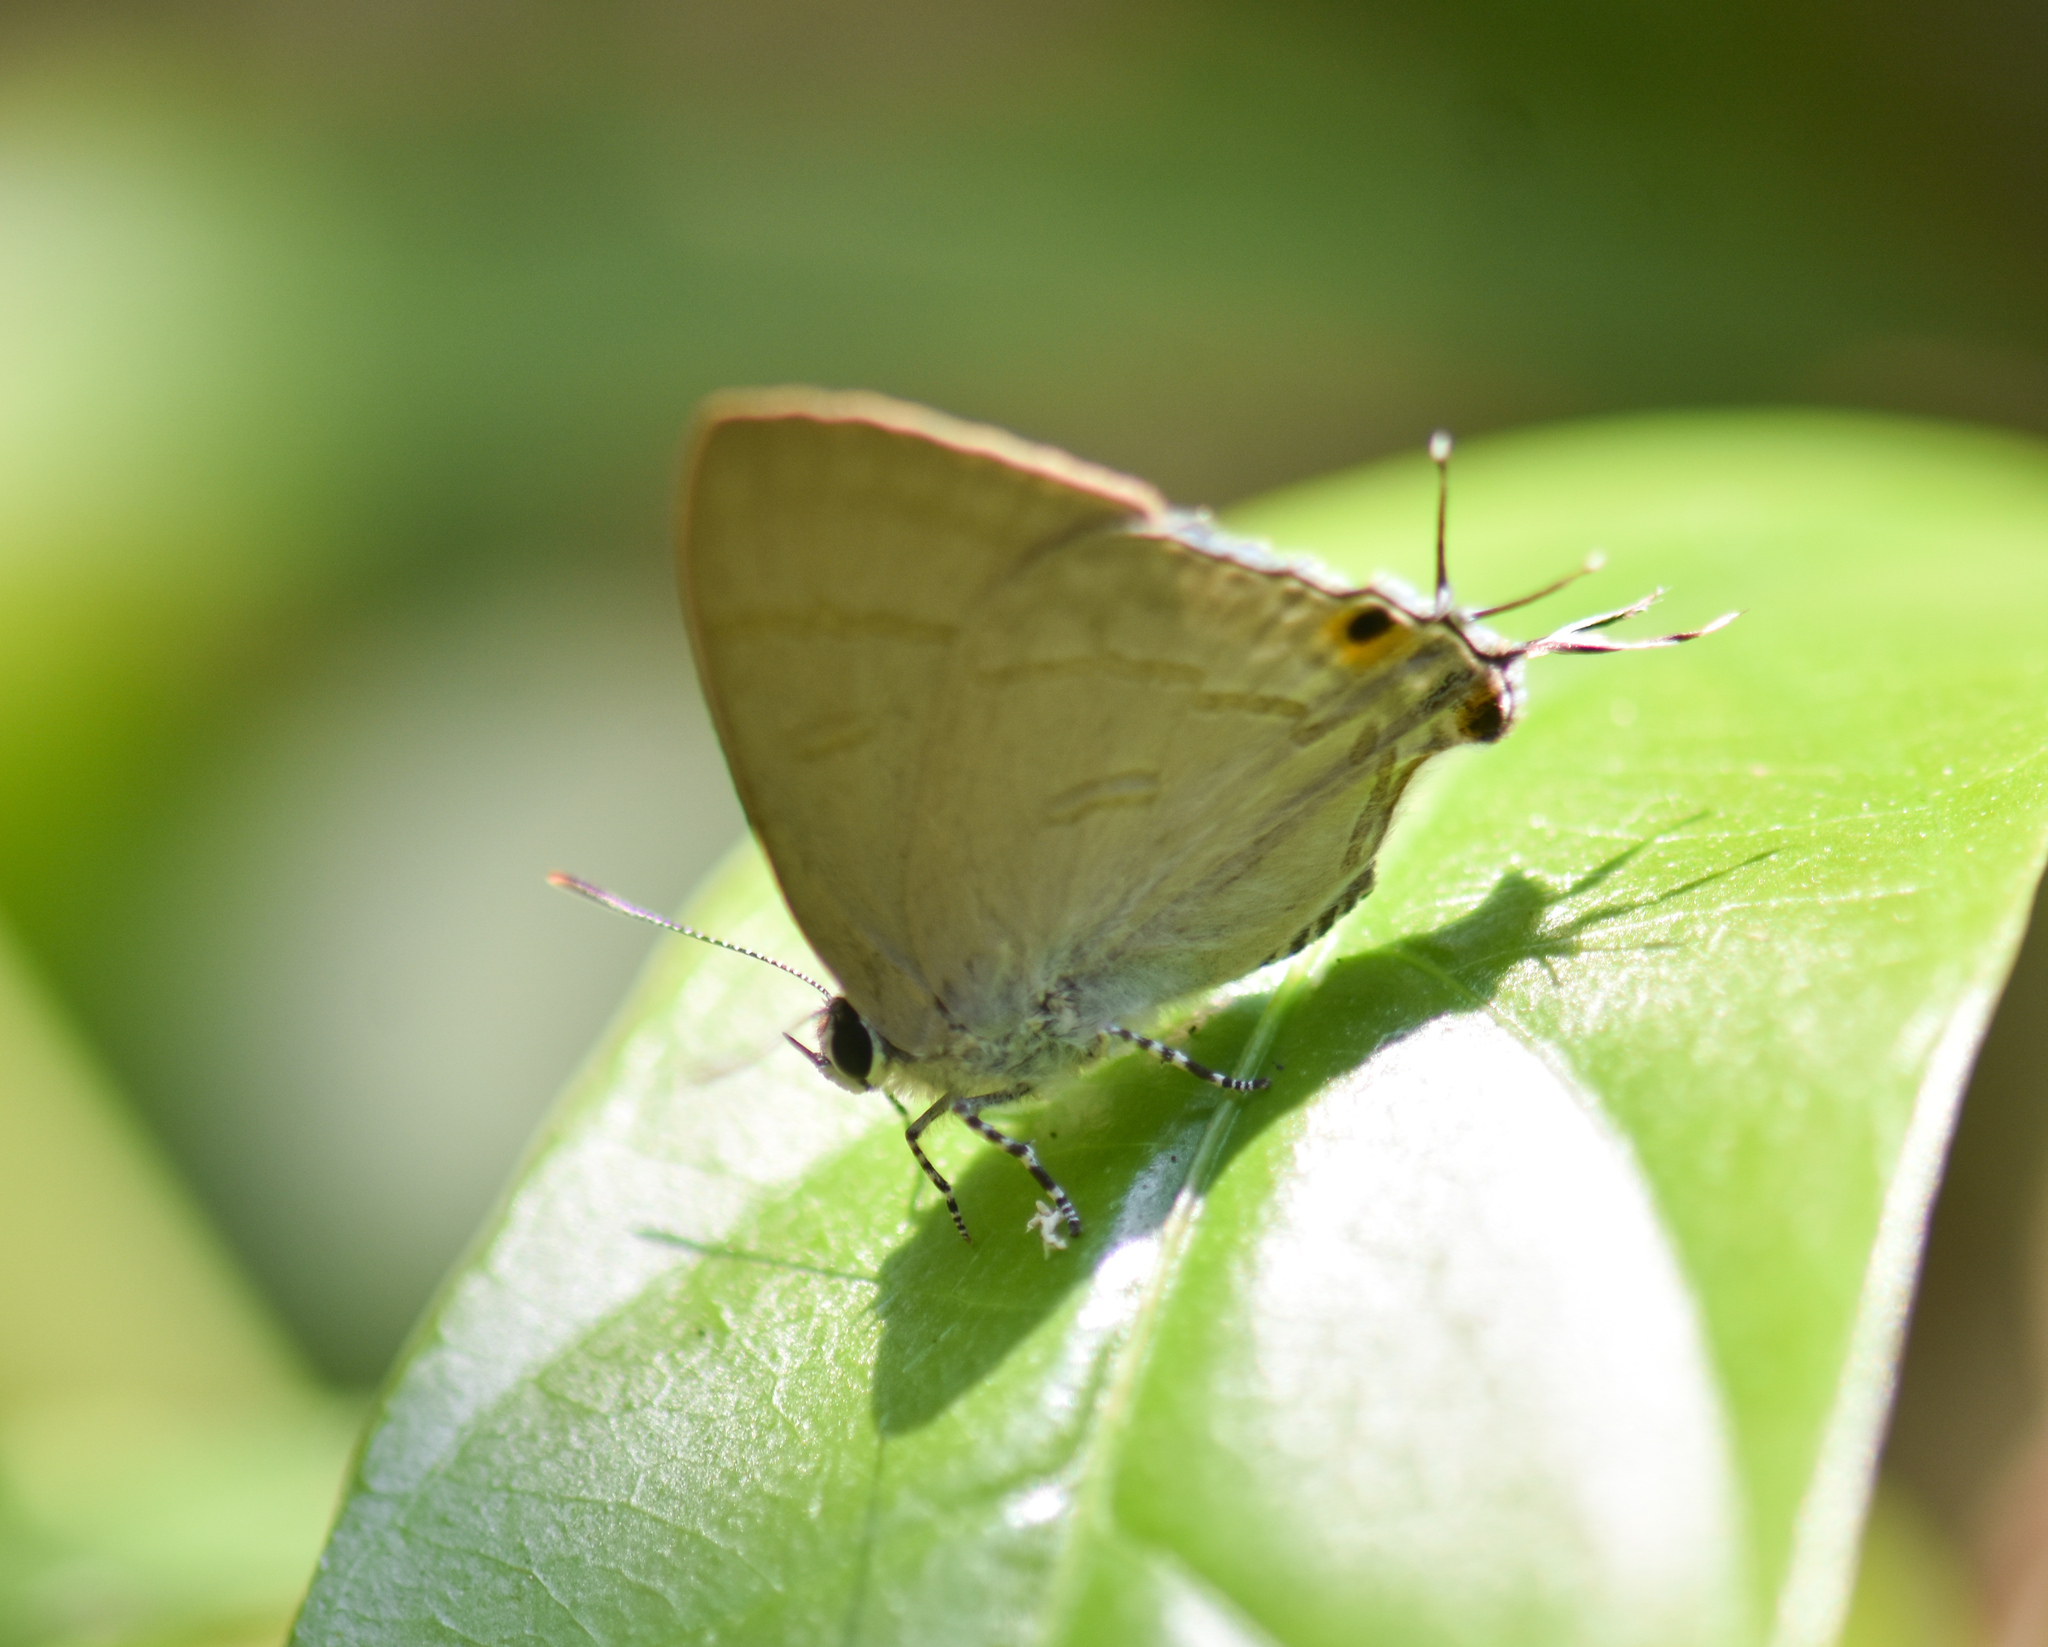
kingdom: Animalia
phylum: Arthropoda
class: Insecta
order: Lepidoptera
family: Lycaenidae
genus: Hypolycaena
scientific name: Hypolycaena erylus
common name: Common tit
